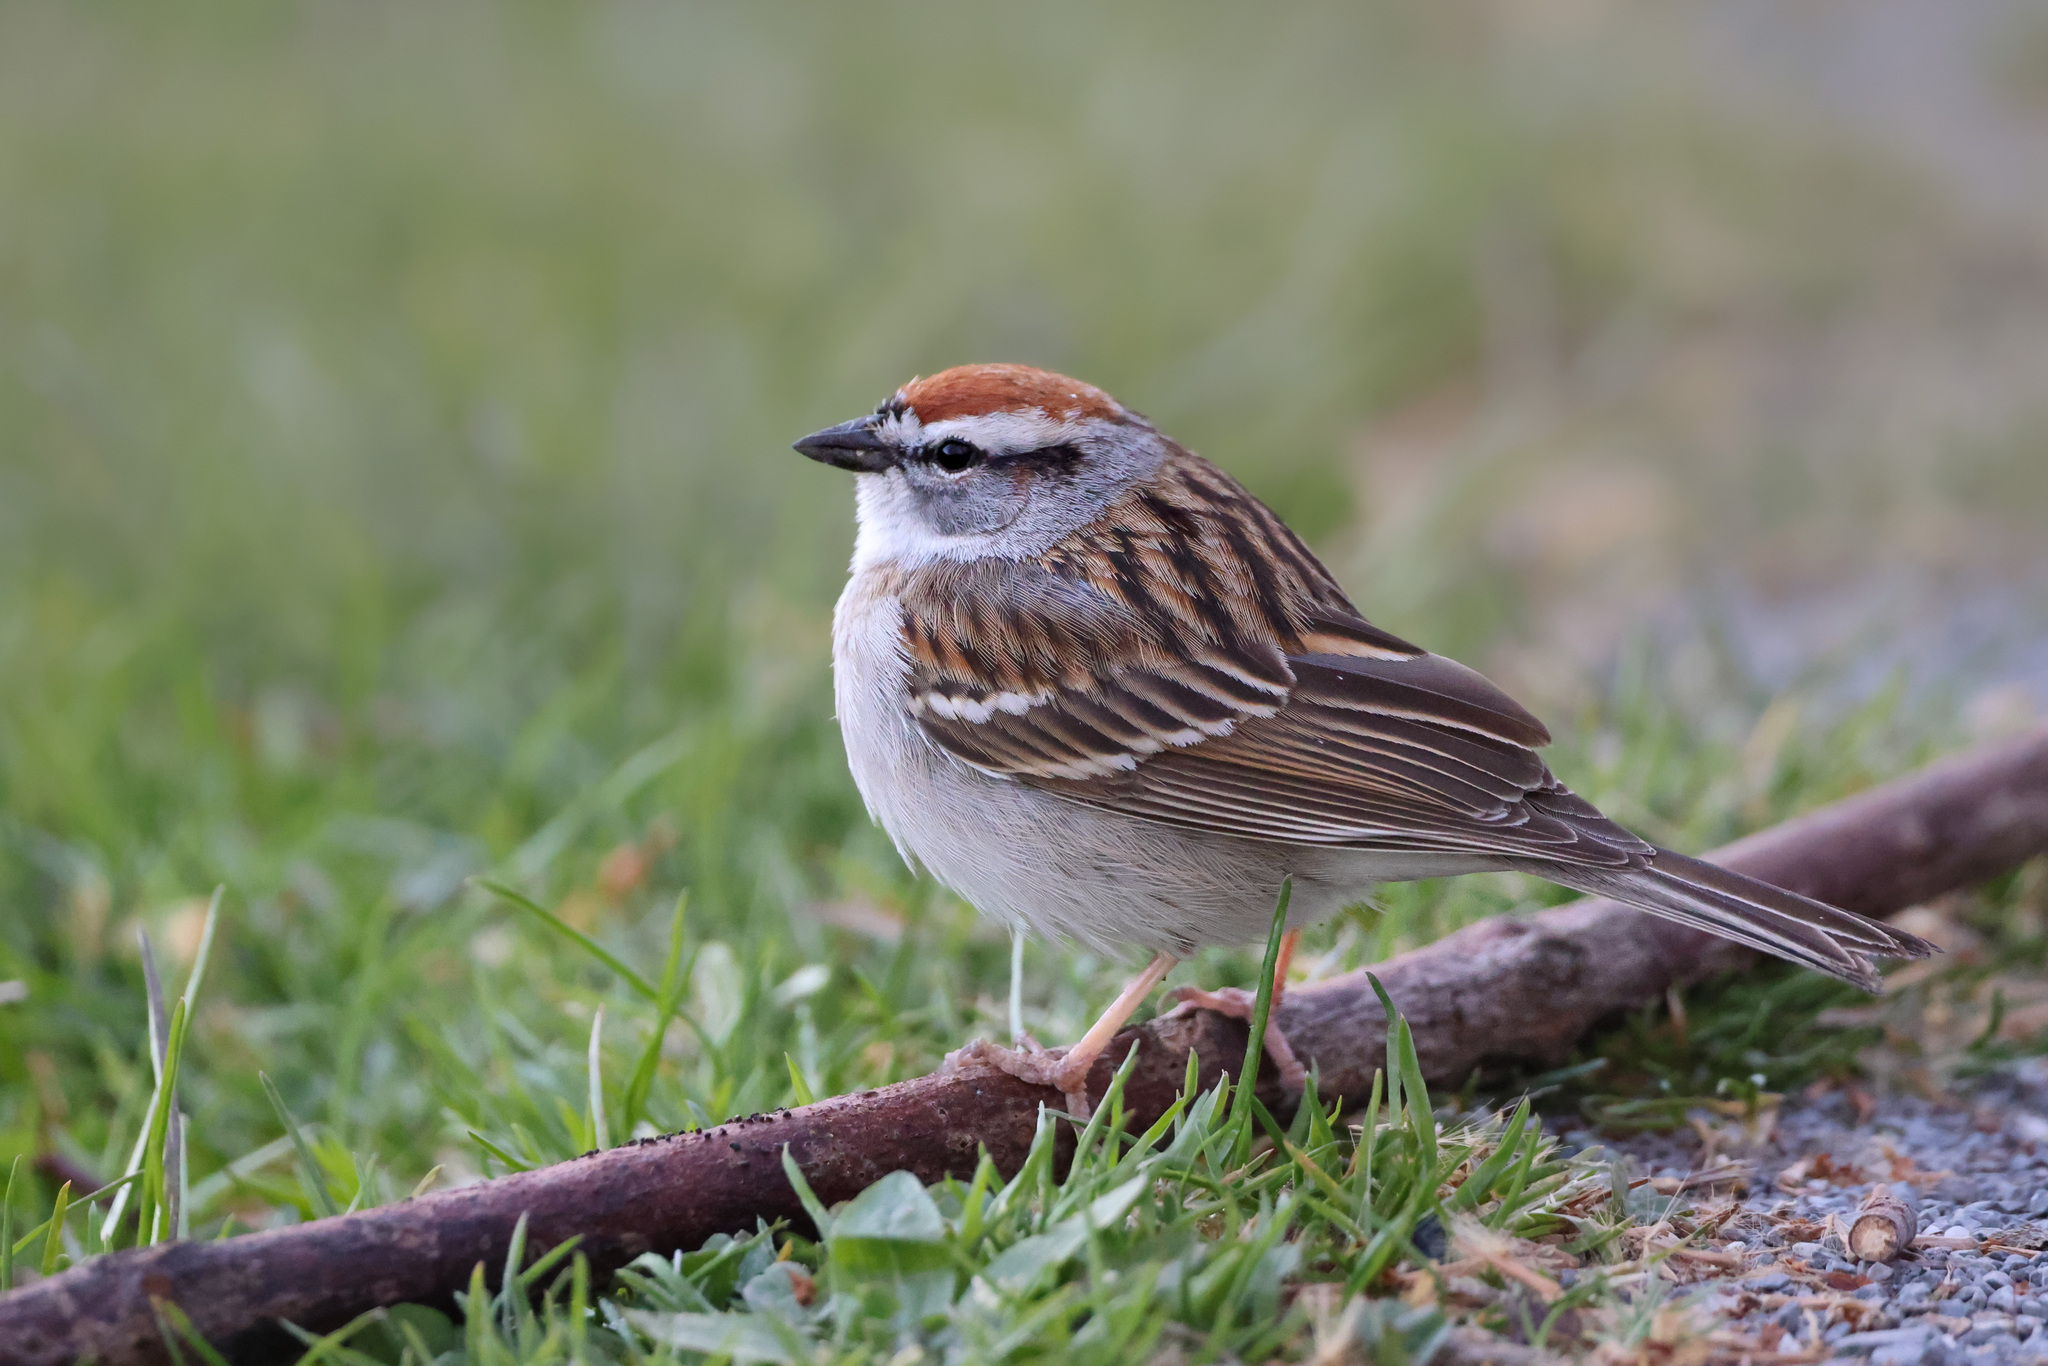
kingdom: Animalia
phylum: Chordata
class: Aves
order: Passeriformes
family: Passerellidae
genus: Spizella
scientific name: Spizella passerina
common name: Chipping sparrow
